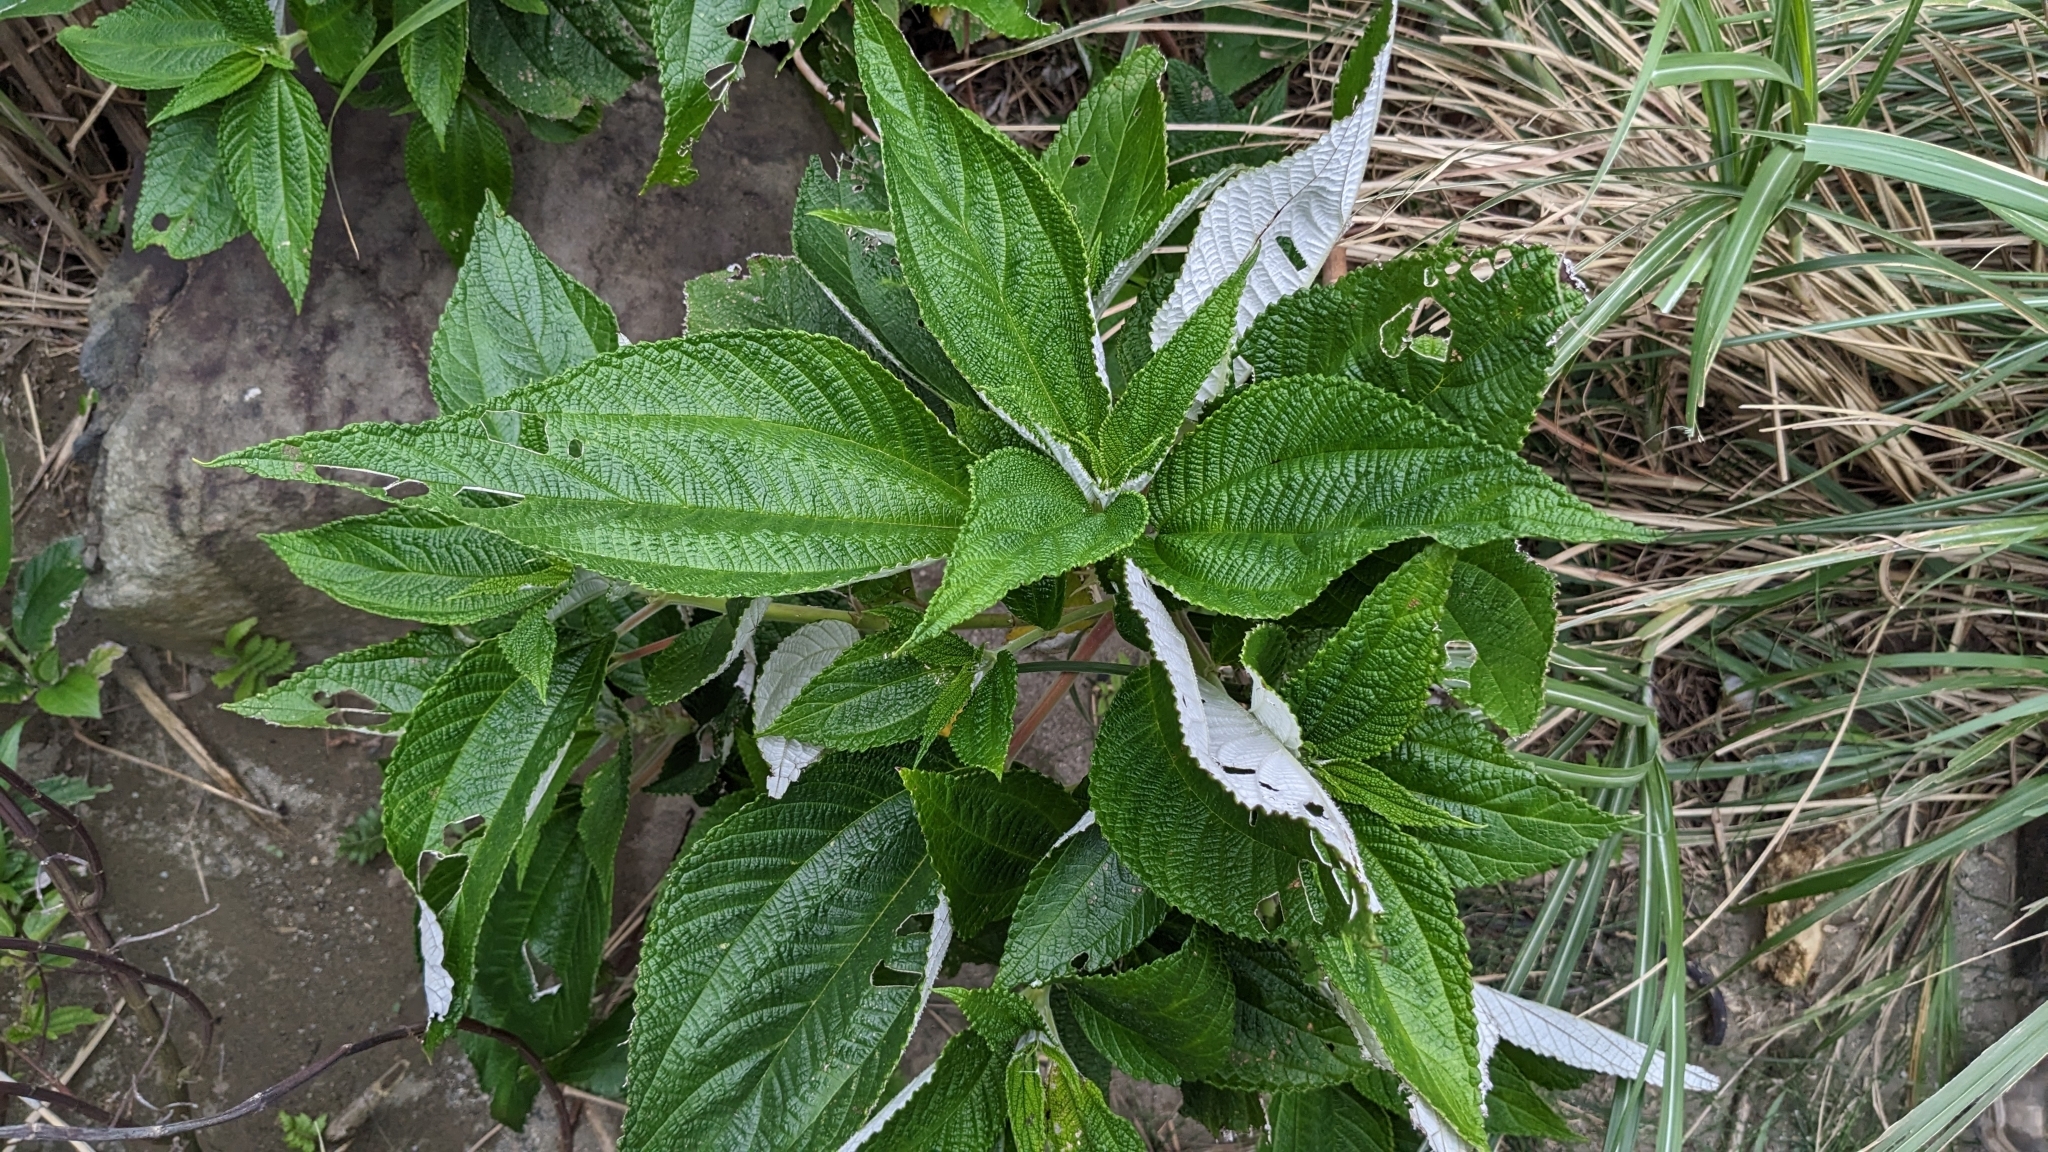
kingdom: Plantae
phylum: Tracheophyta
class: Magnoliopsida
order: Rosales
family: Urticaceae
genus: Maoutia
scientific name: Maoutia setosa
